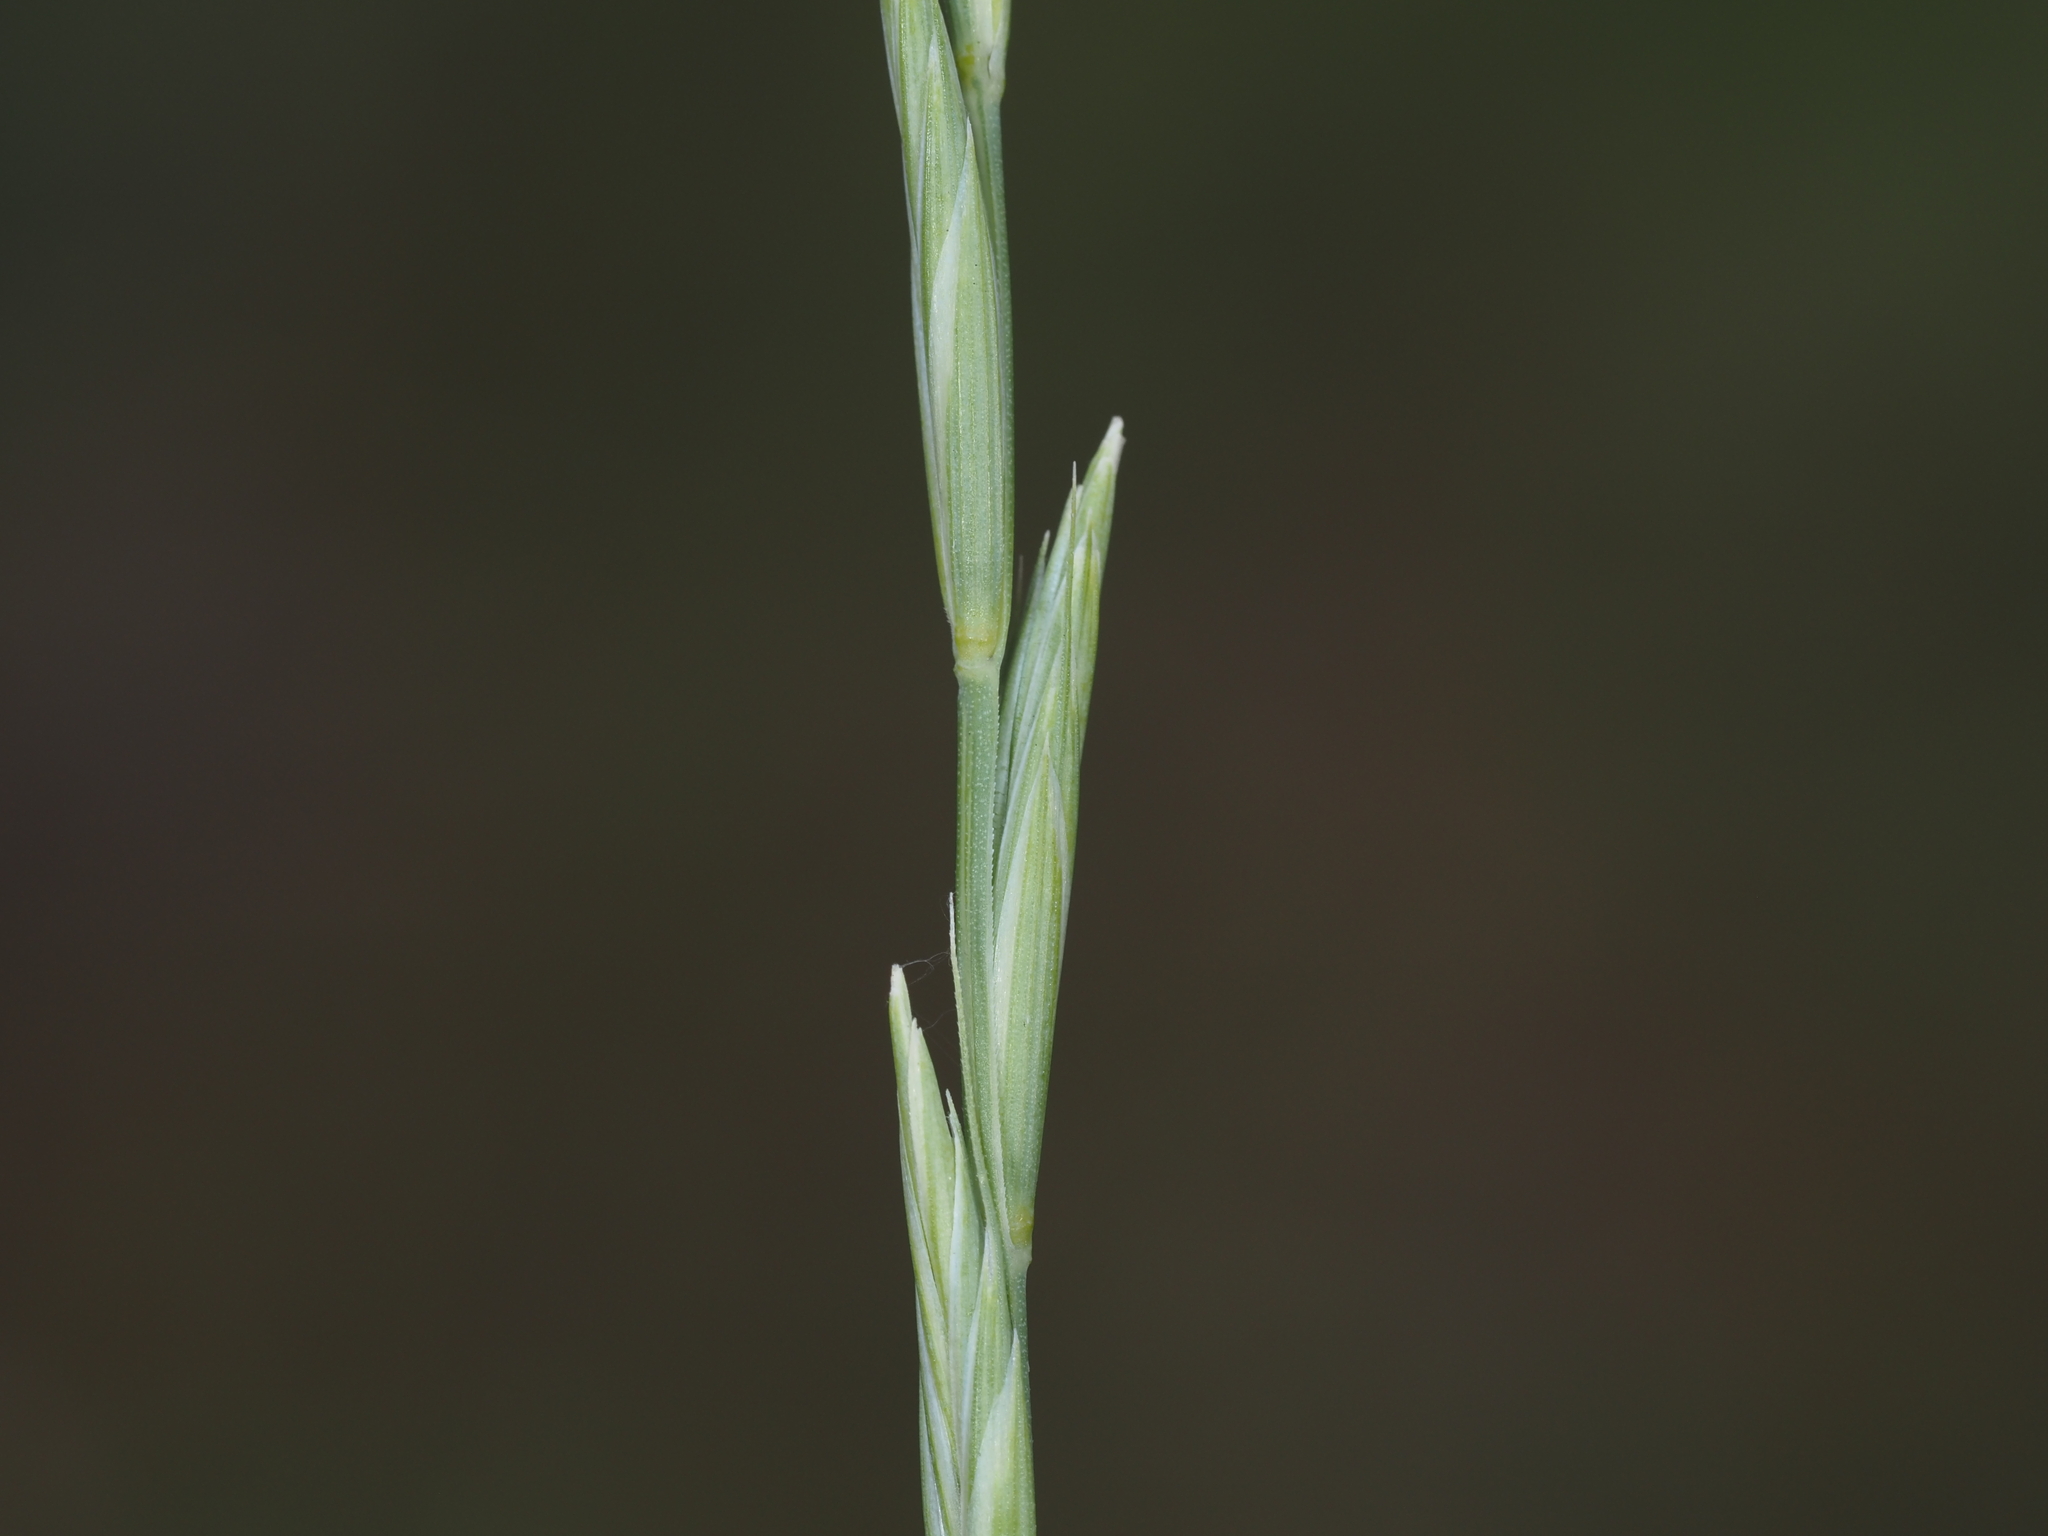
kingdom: Plantae
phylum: Tracheophyta
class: Liliopsida
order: Poales
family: Poaceae
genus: Pseudoroegneria
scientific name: Pseudoroegneria spicata
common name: Bluebunch wheatgrass
